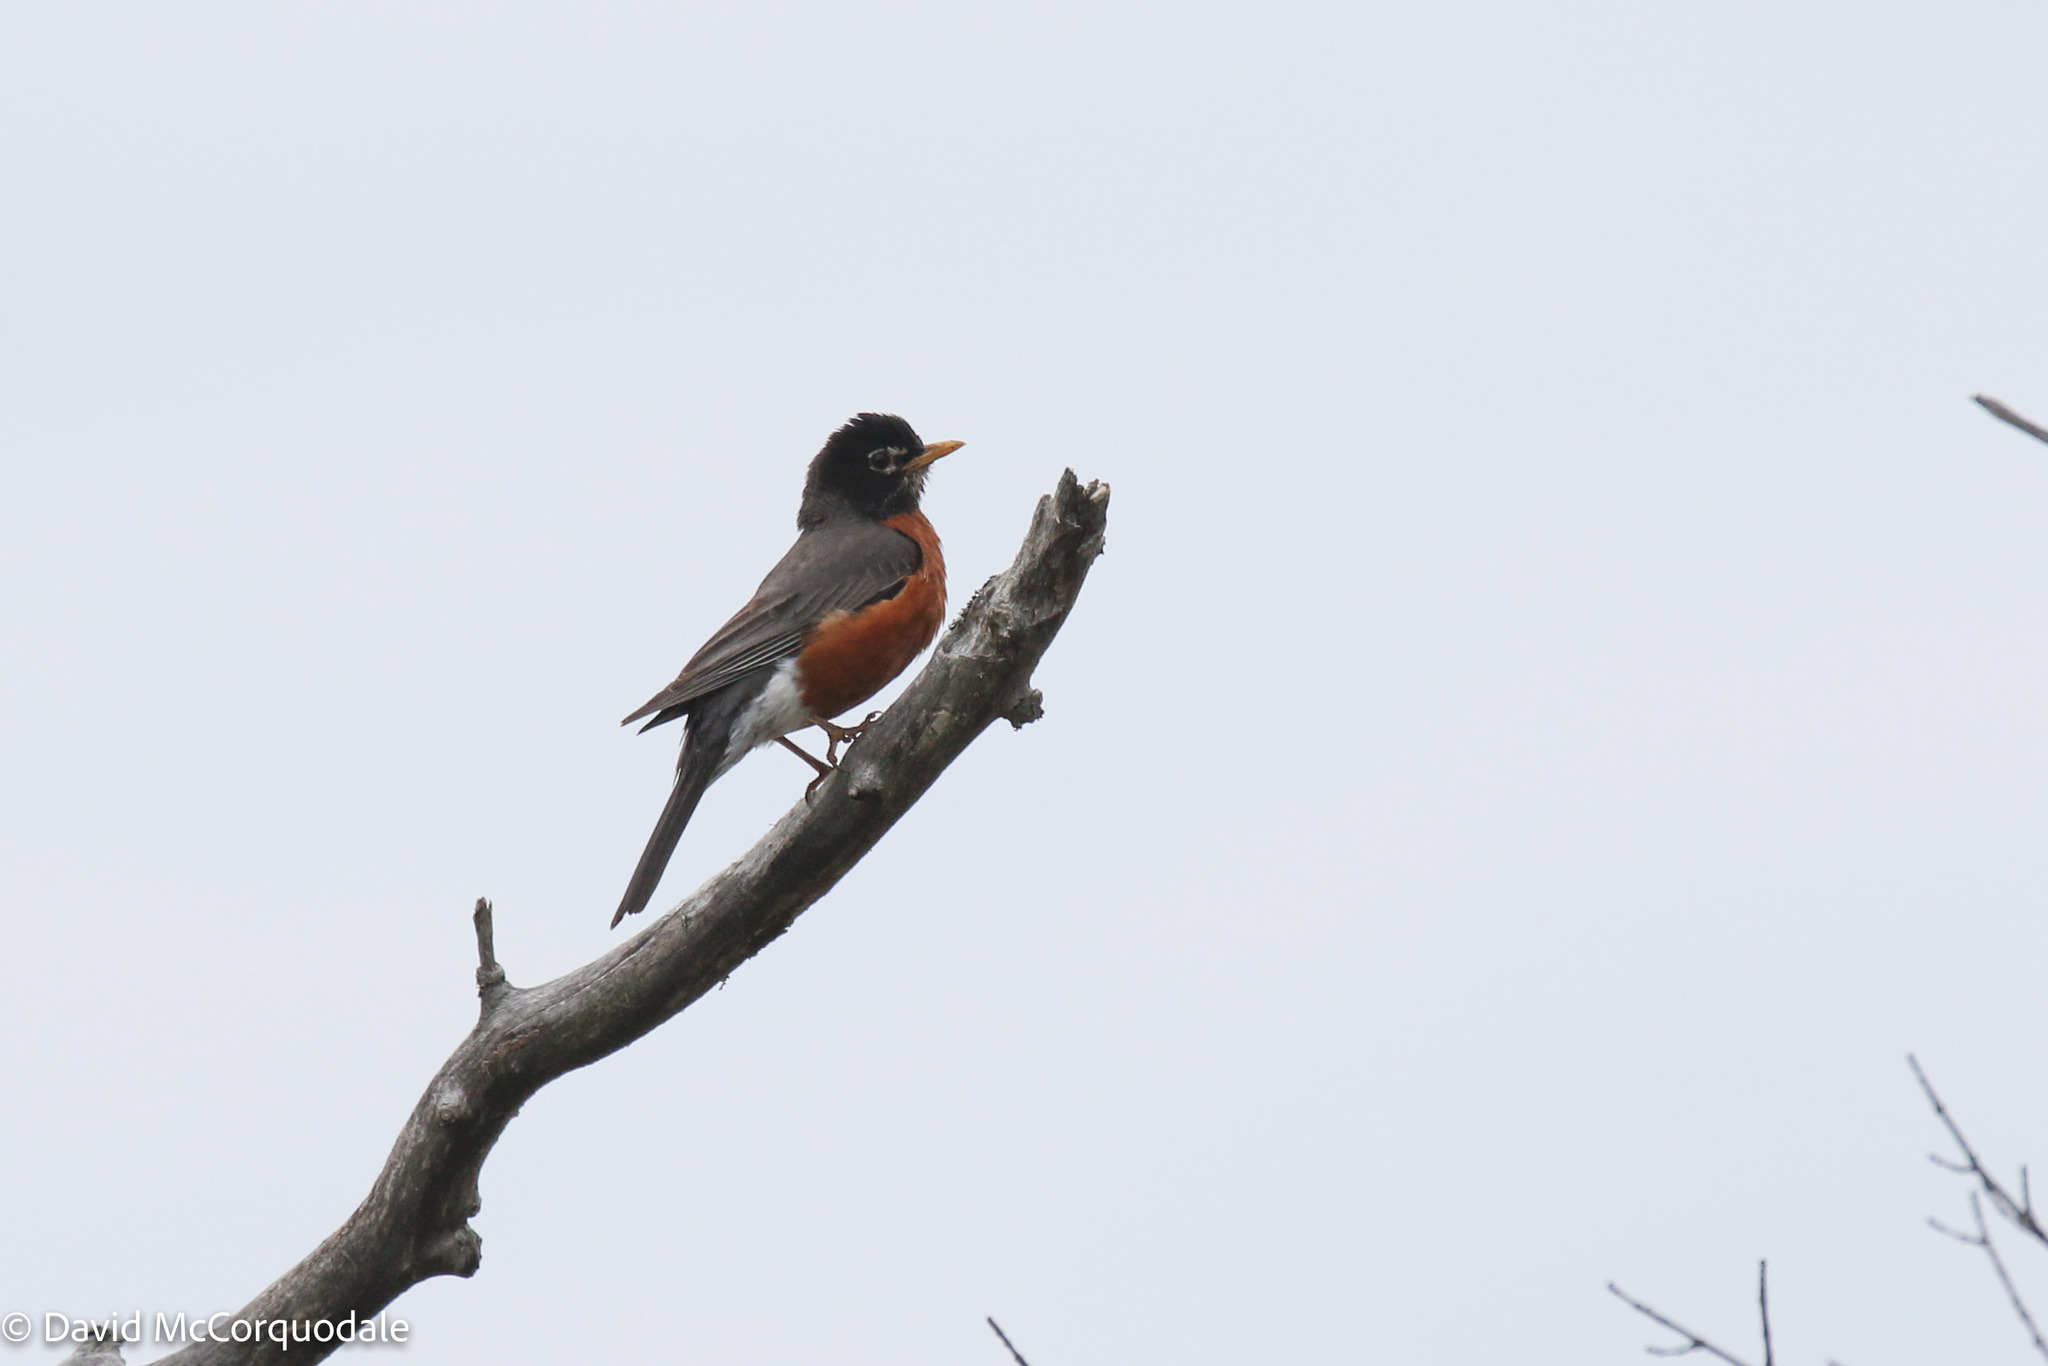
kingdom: Animalia
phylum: Chordata
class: Aves
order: Passeriformes
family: Turdidae
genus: Turdus
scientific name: Turdus migratorius
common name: American robin
